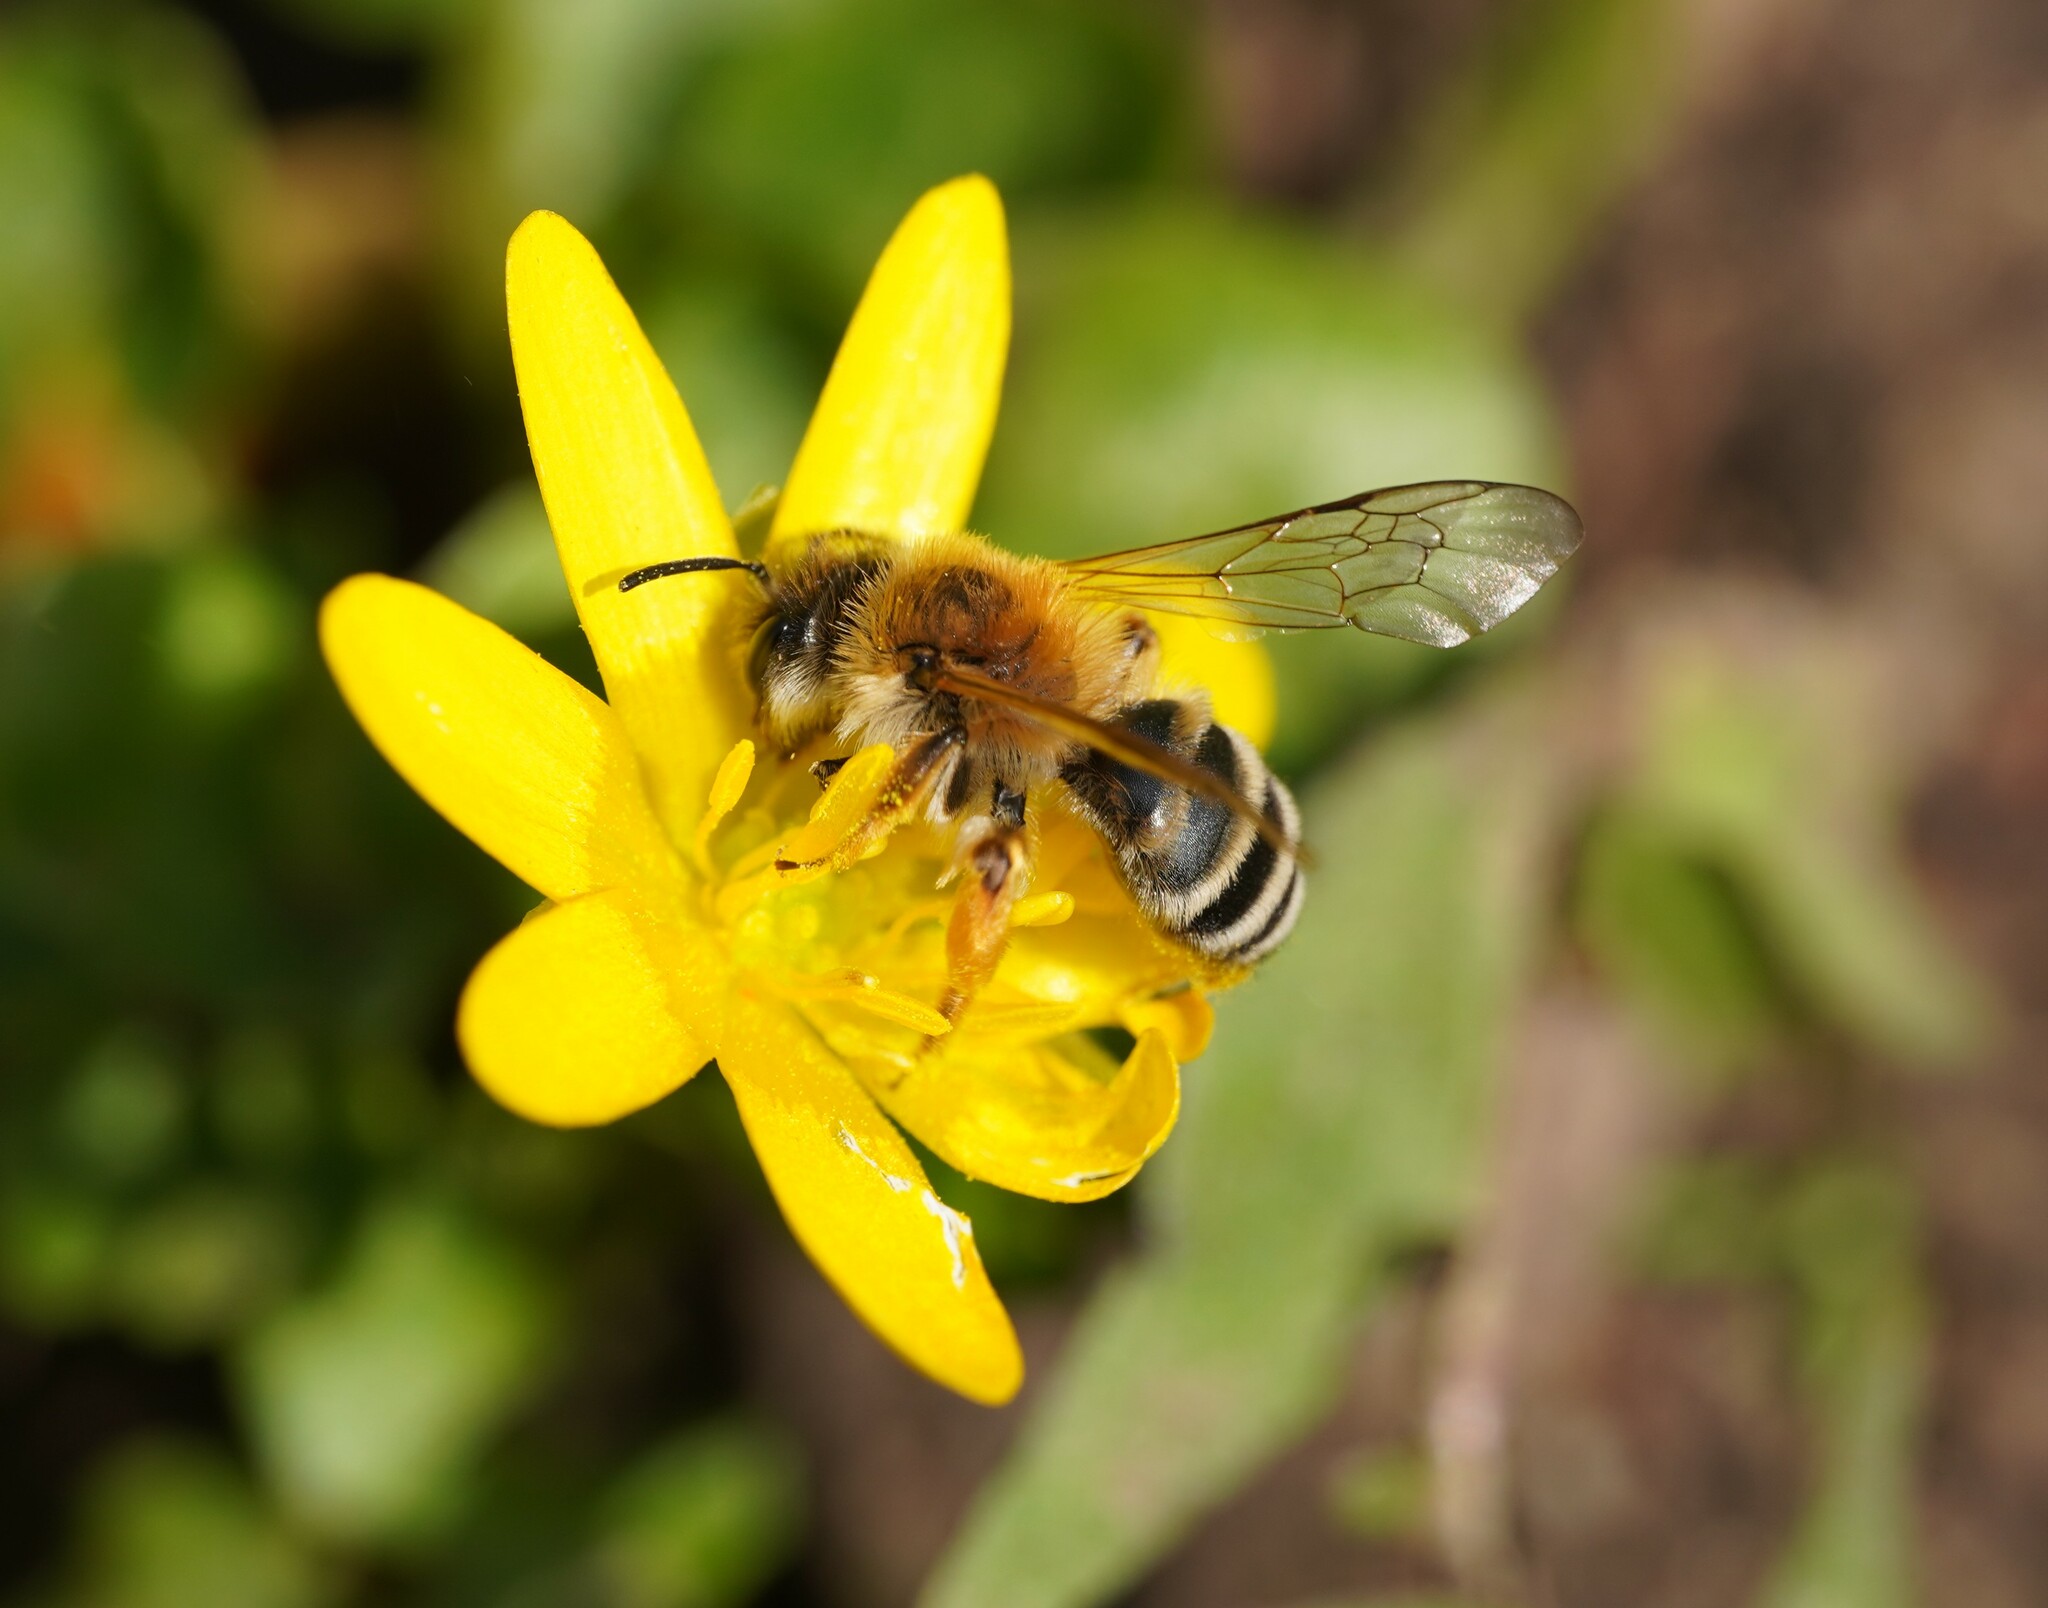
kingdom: Animalia
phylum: Arthropoda
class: Insecta
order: Hymenoptera
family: Andrenidae
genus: Andrena
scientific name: Andrena gravida
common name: White-bellied mining bee
